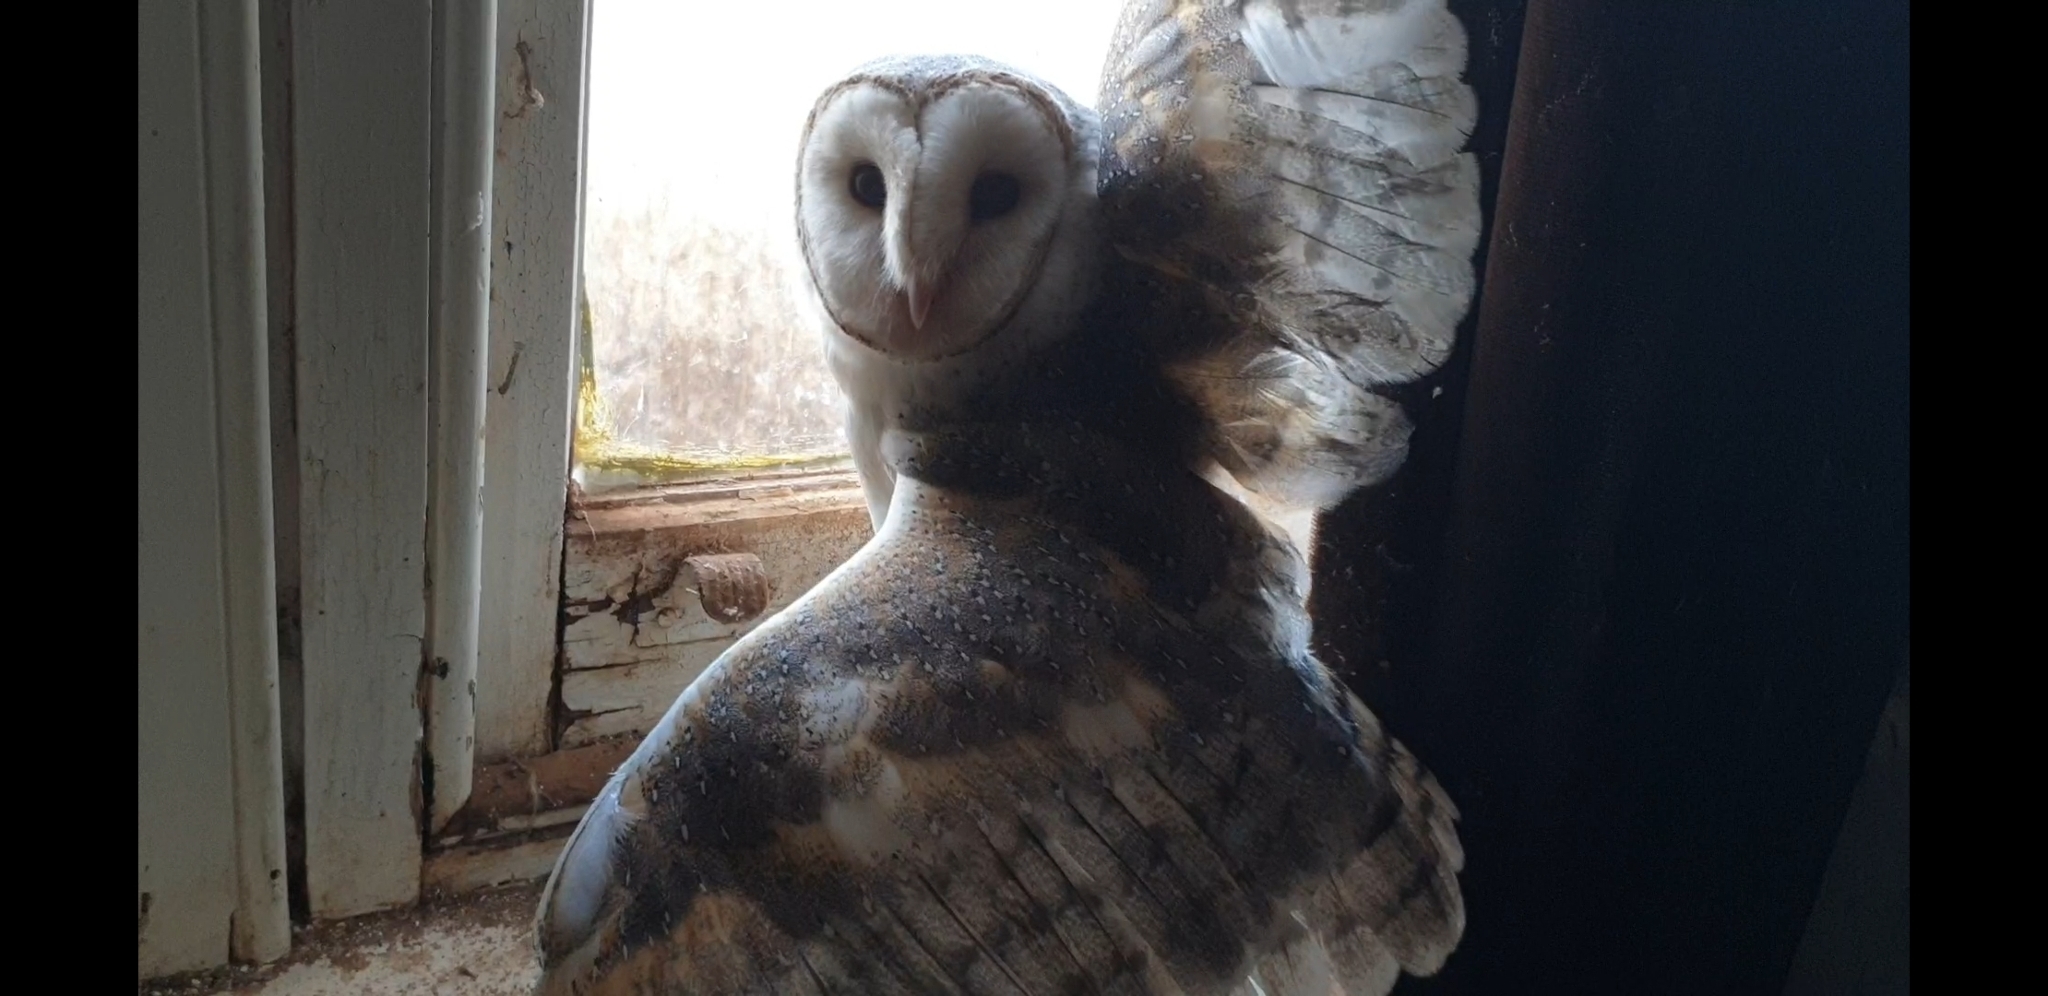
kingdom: Animalia
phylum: Chordata
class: Aves
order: Strigiformes
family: Tytonidae
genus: Tyto
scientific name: Tyto alba
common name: Barn owl
